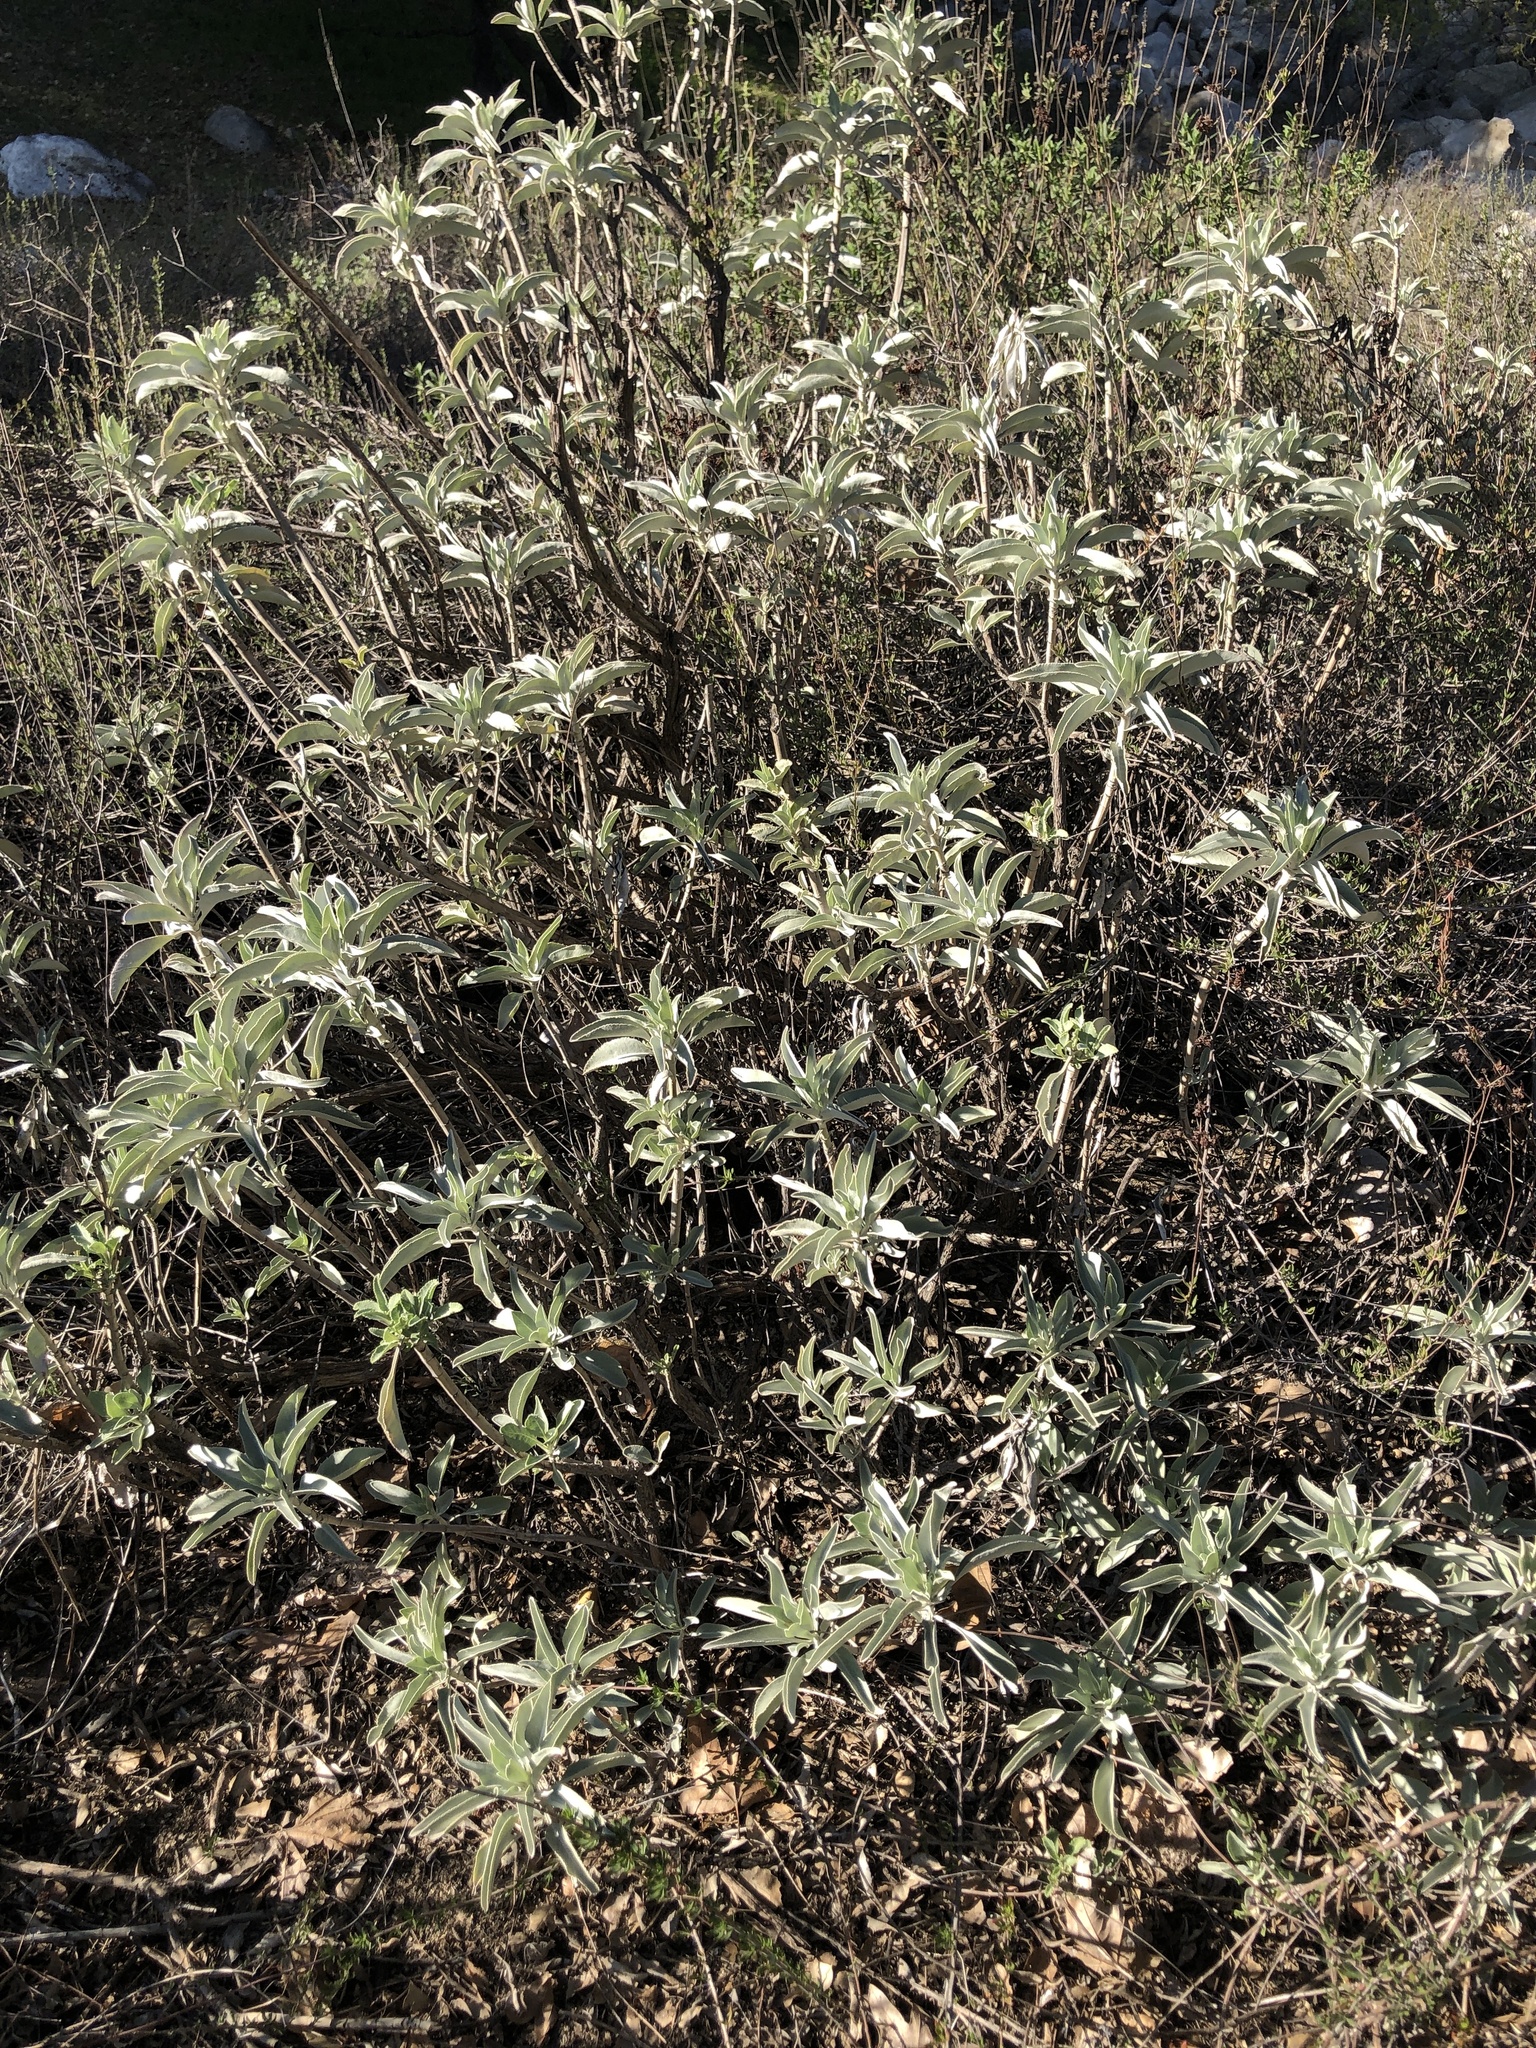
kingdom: Plantae
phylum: Tracheophyta
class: Magnoliopsida
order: Lamiales
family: Lamiaceae
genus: Salvia
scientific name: Salvia apiana
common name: White sage
